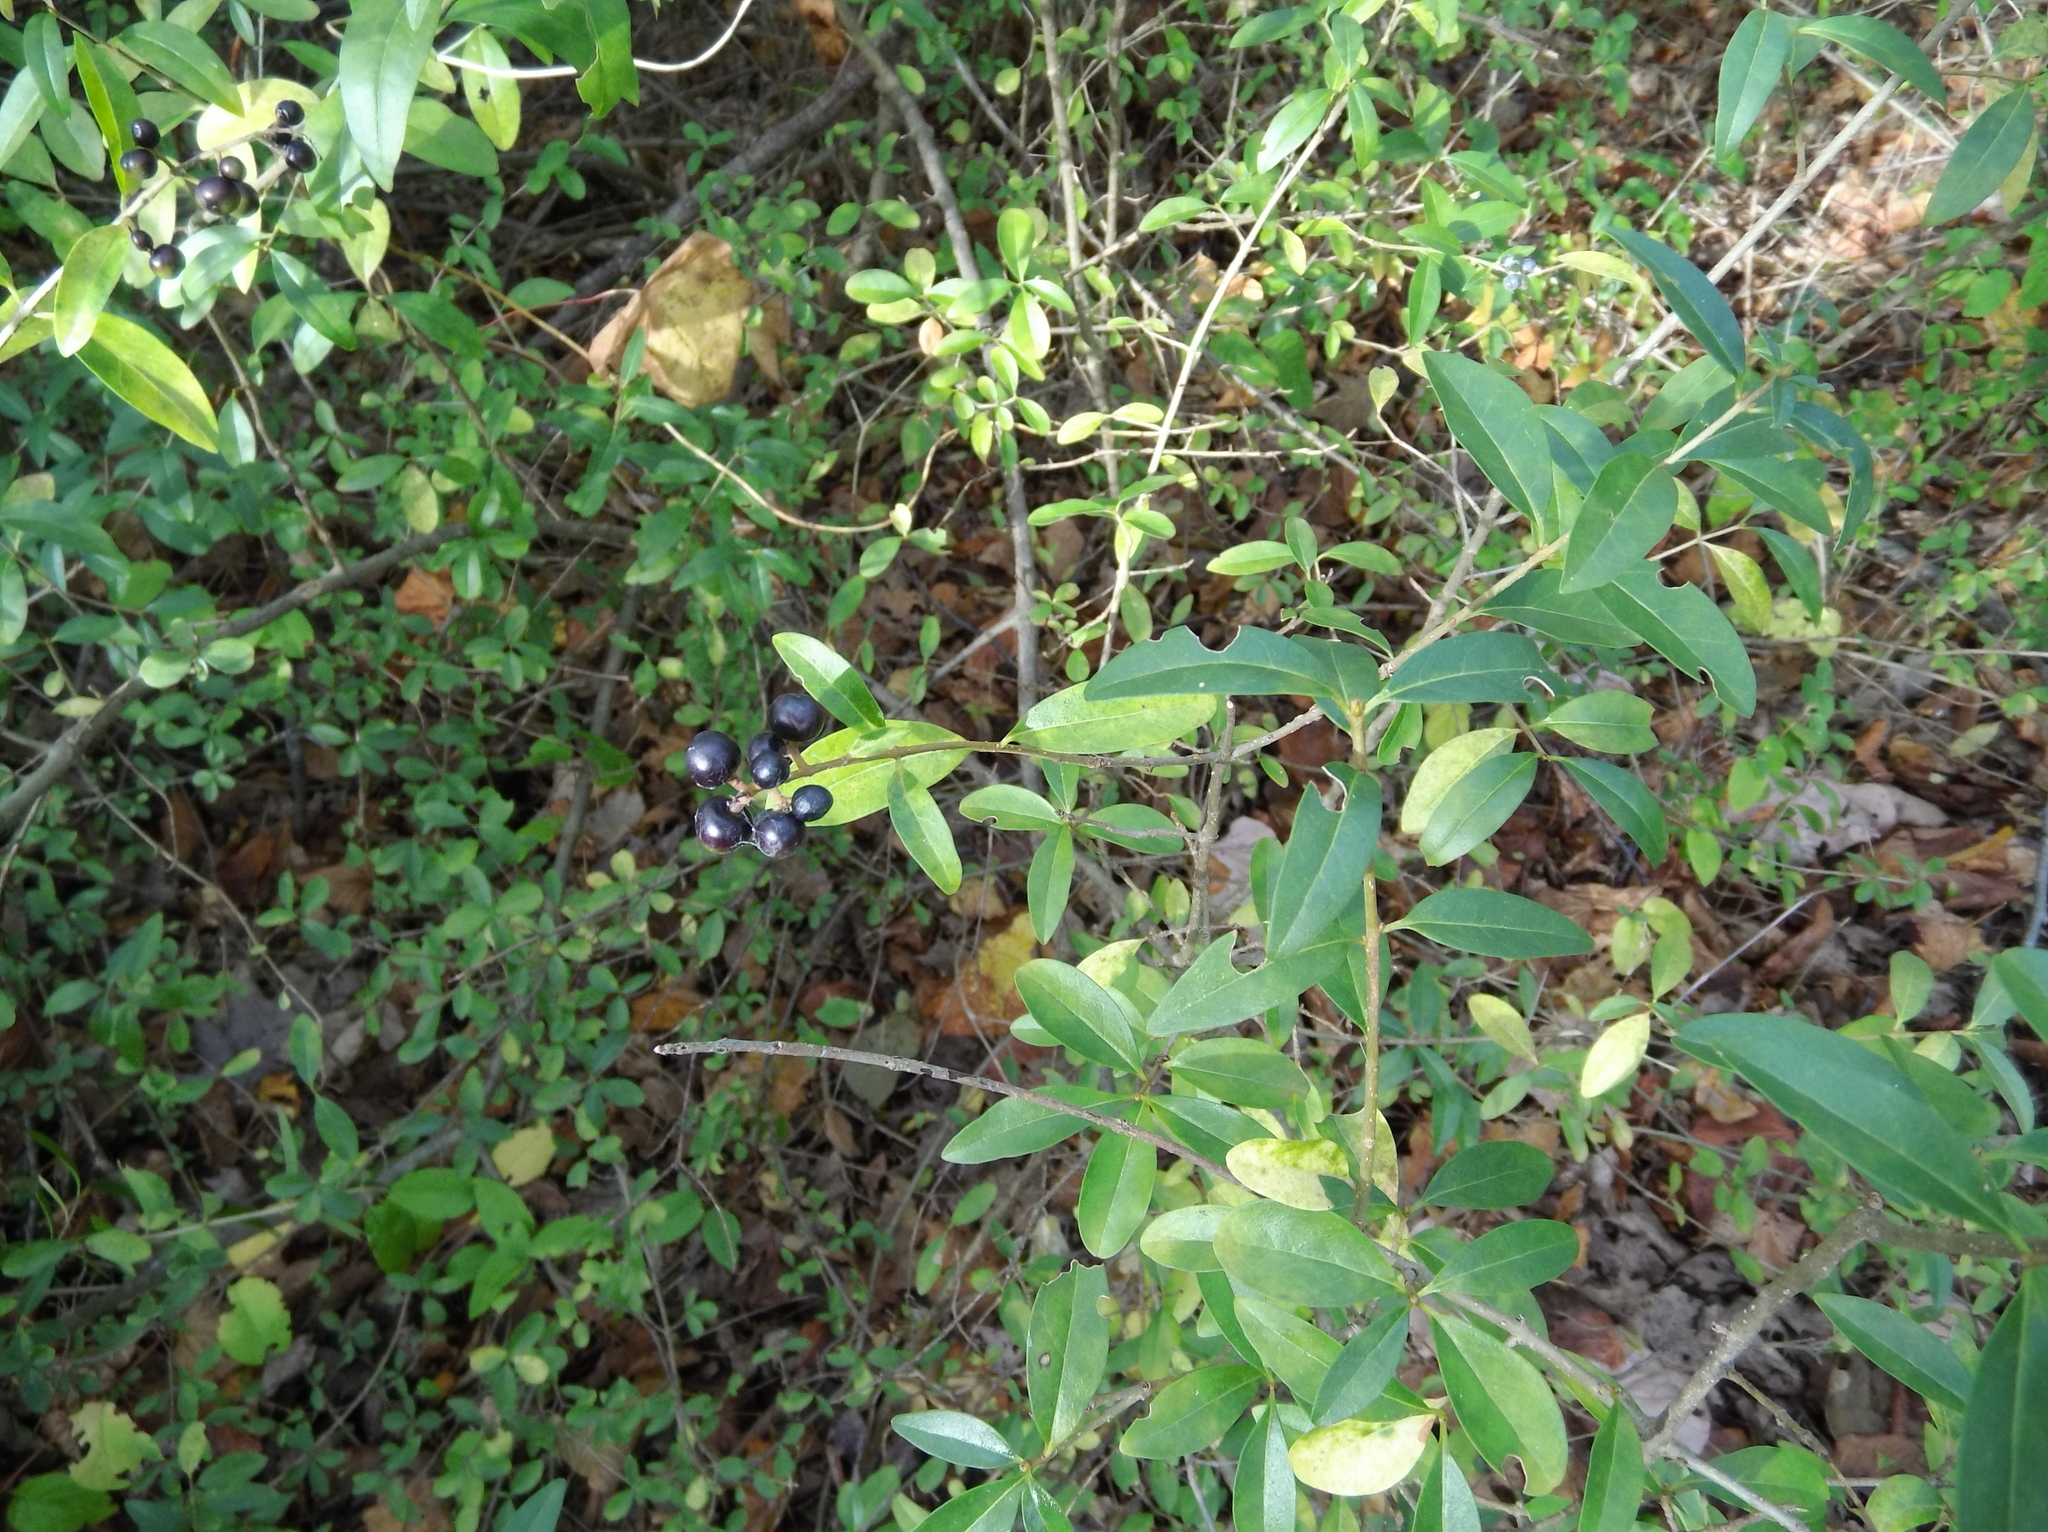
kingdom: Plantae
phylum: Tracheophyta
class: Magnoliopsida
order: Lamiales
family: Oleaceae
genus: Ligustrum
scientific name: Ligustrum vulgare
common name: Wild privet
